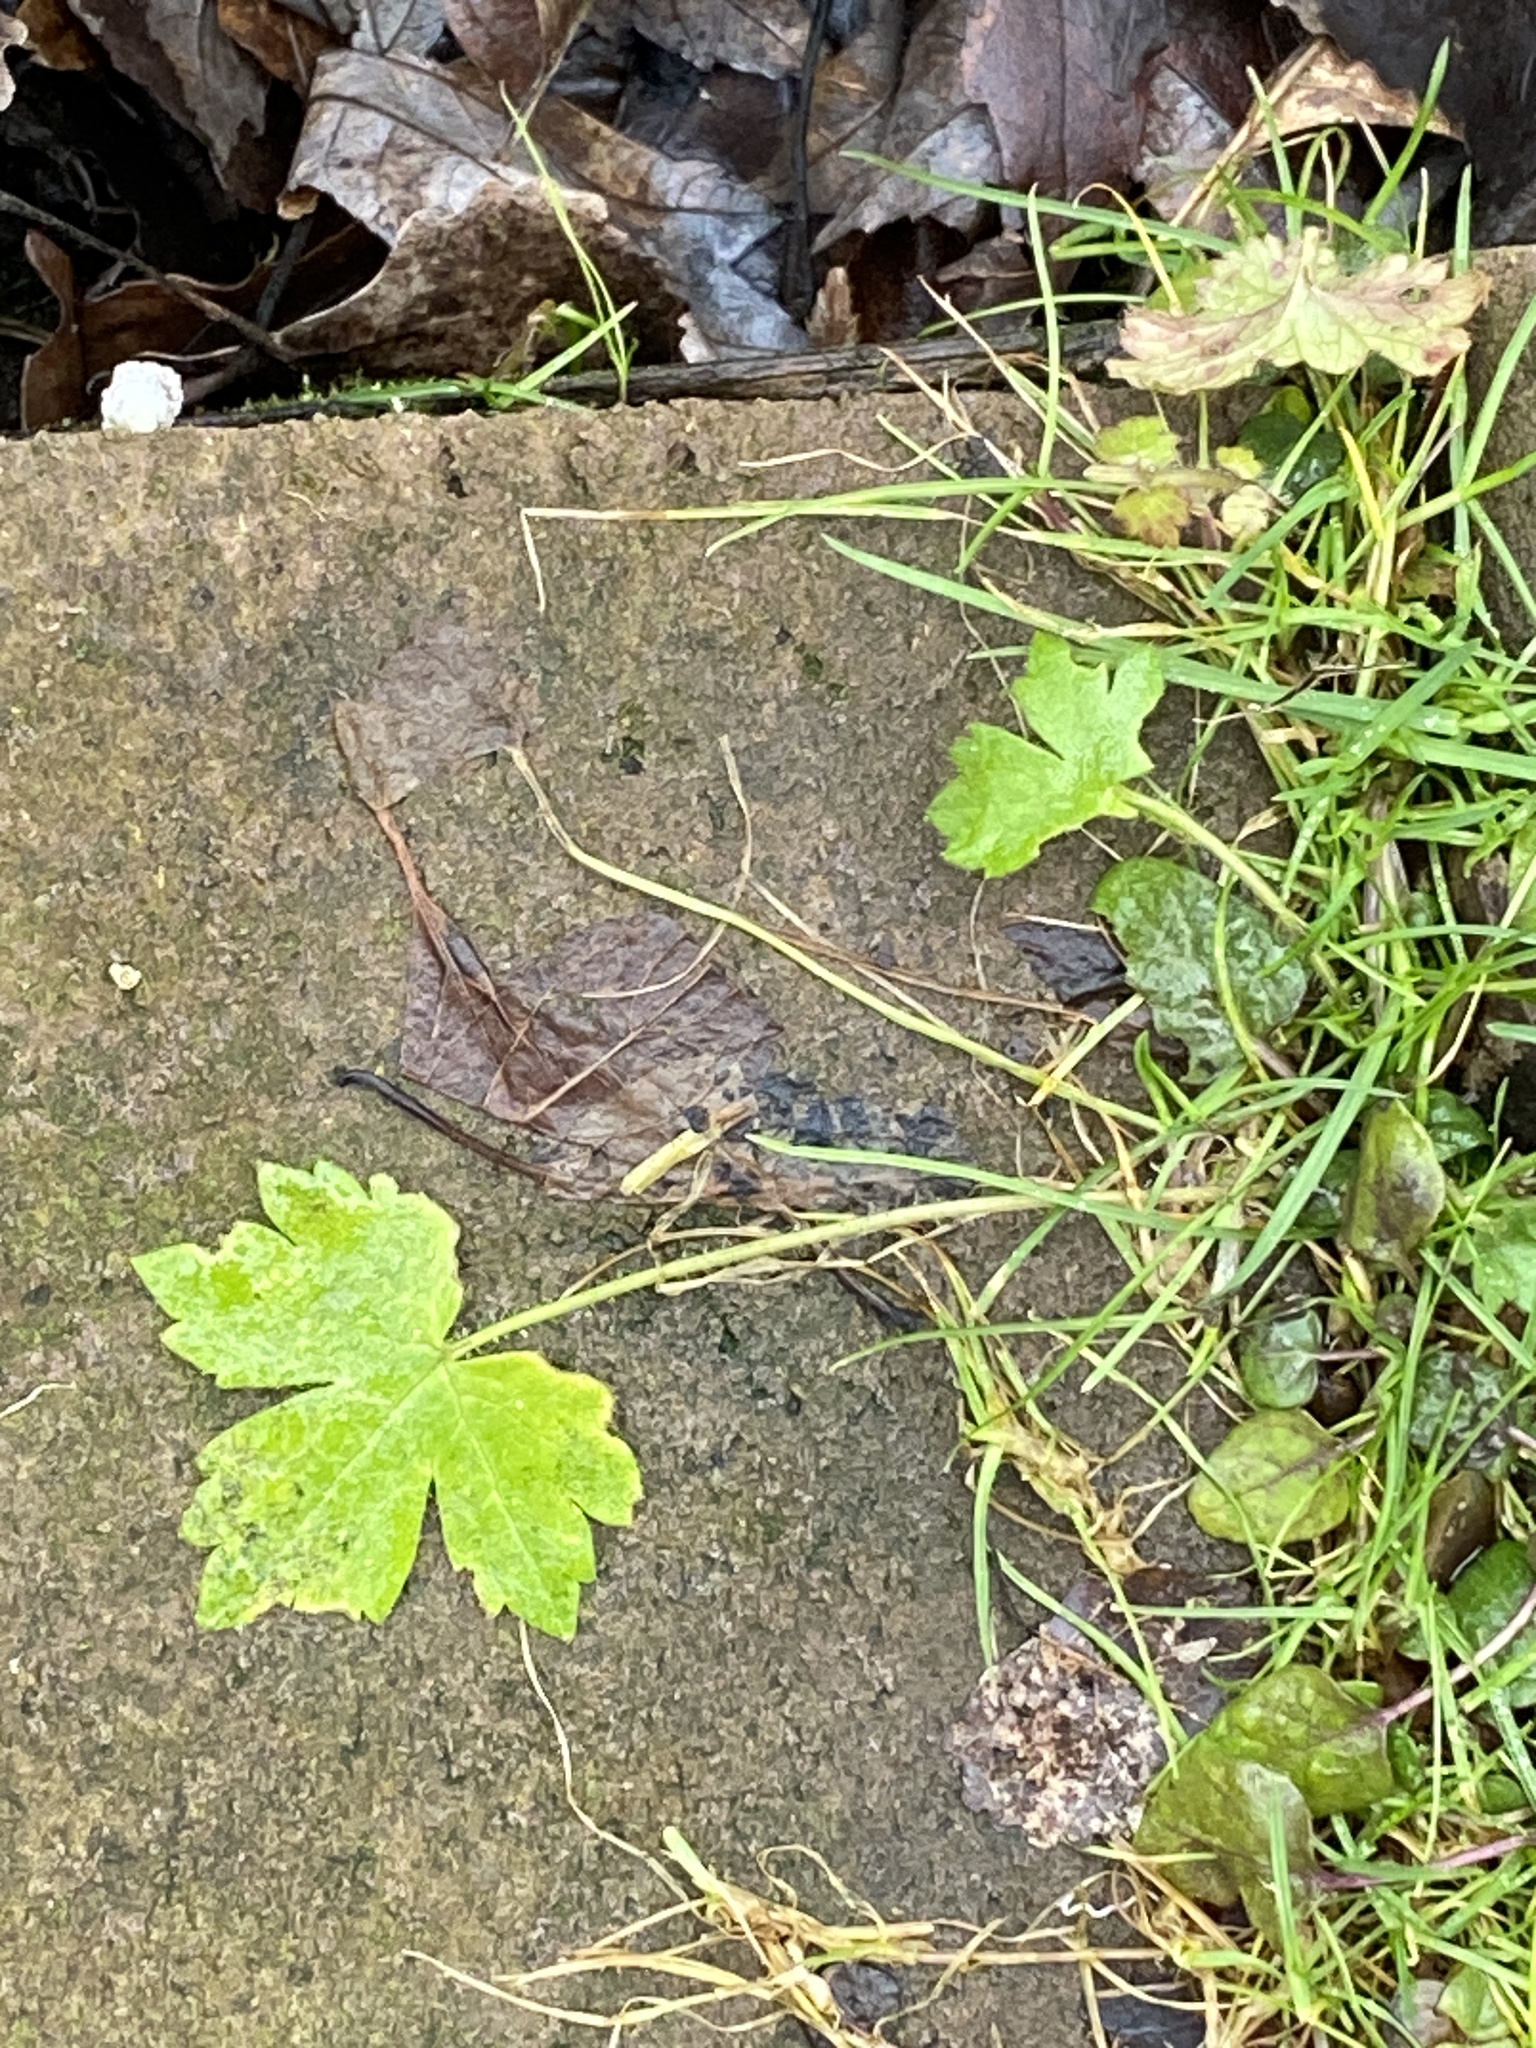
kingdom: Plantae
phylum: Tracheophyta
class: Magnoliopsida
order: Ranunculales
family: Ranunculaceae
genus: Ranunculus
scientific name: Ranunculus recurvatus
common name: Blisterwort
